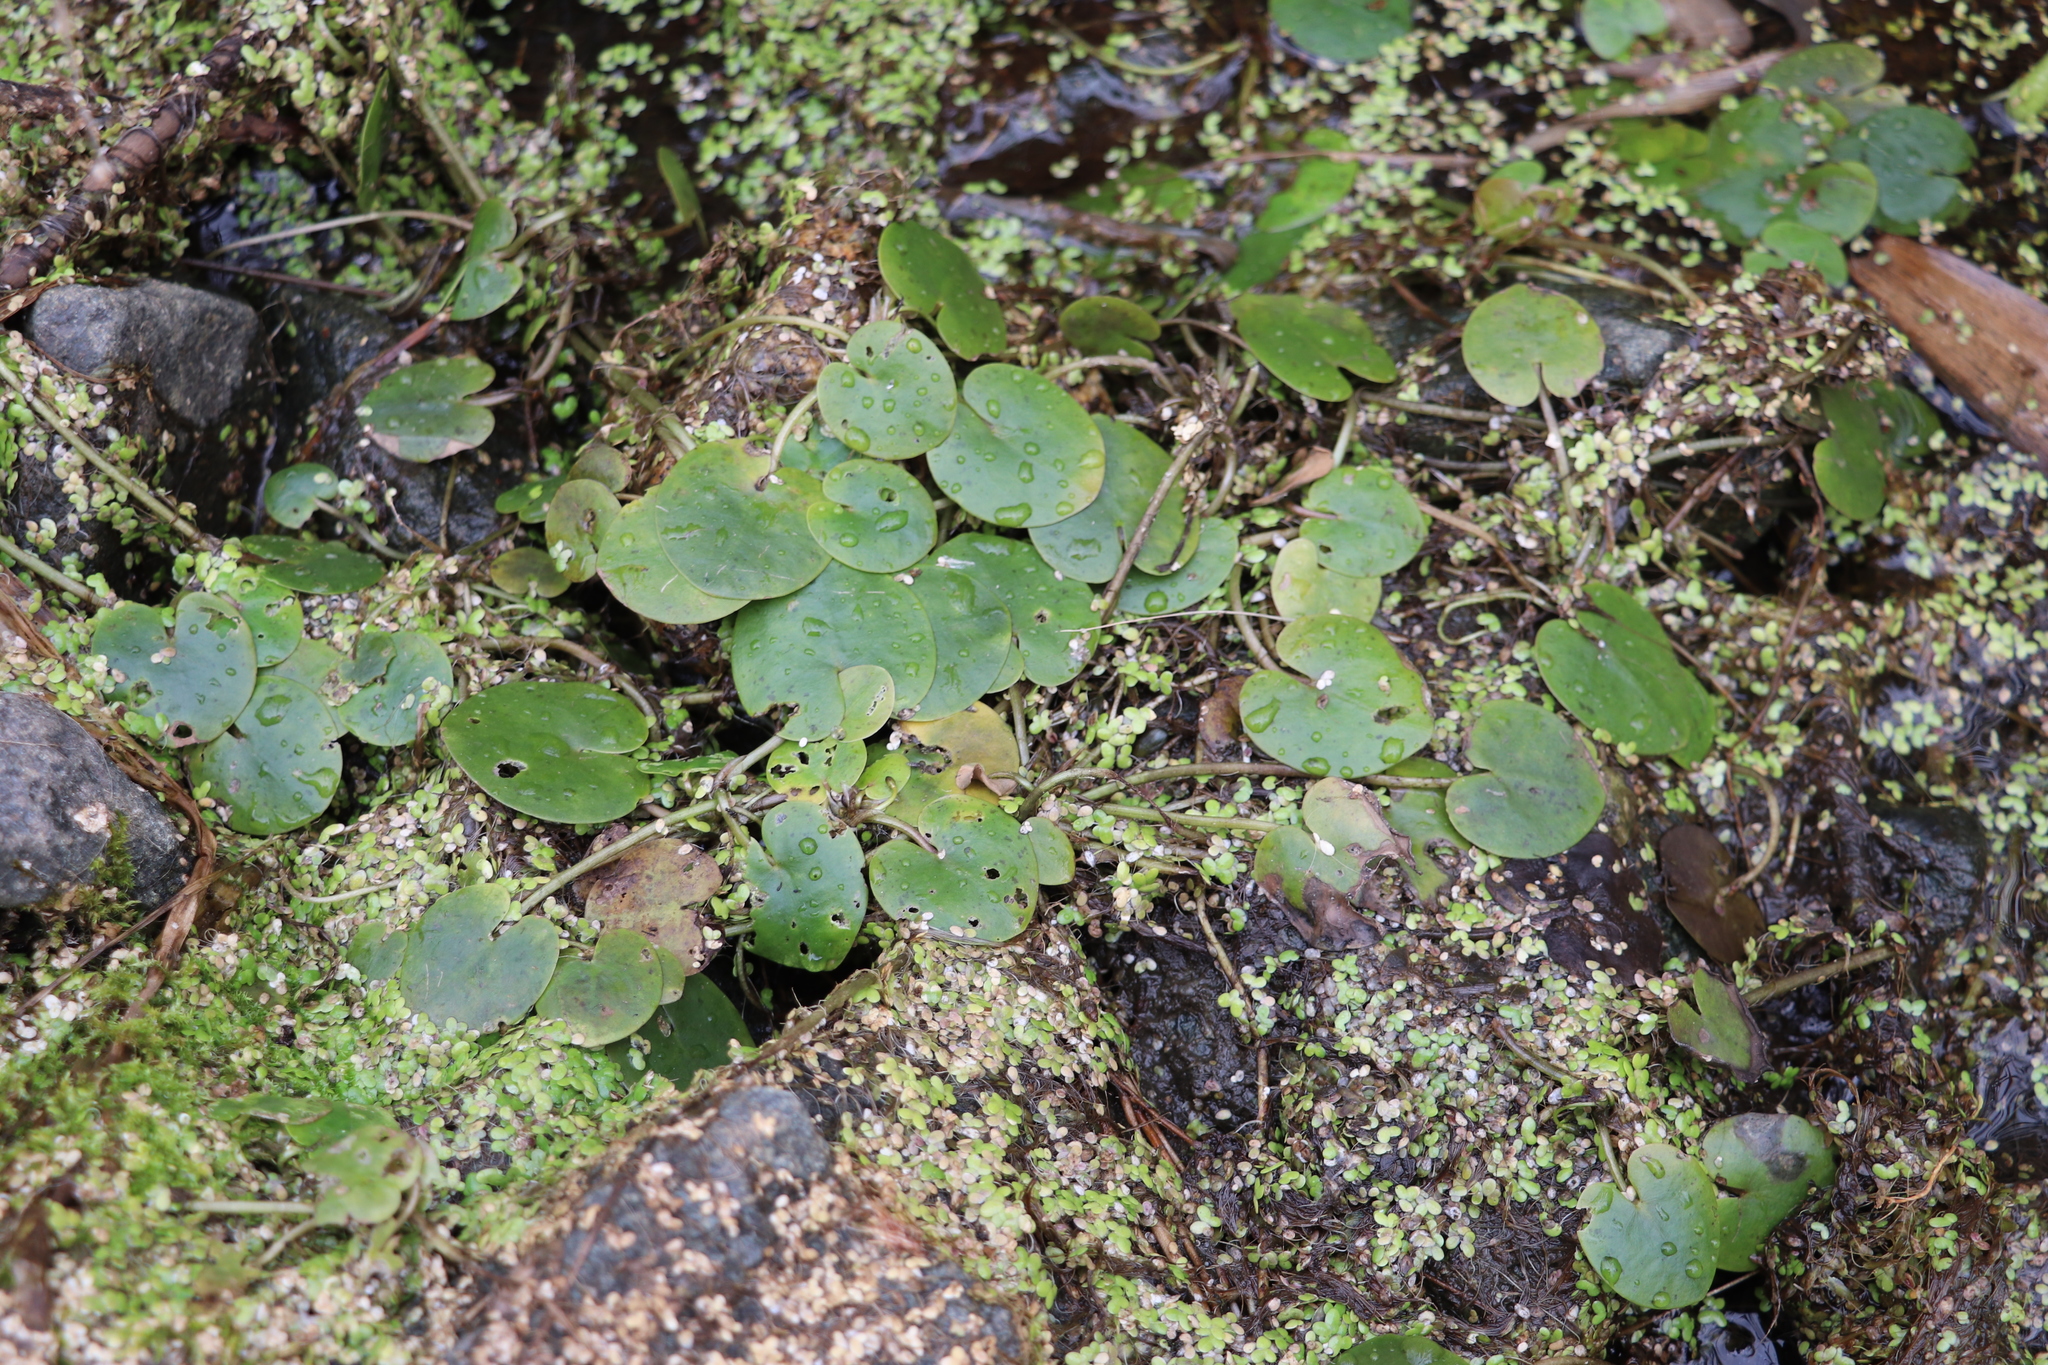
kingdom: Plantae
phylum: Tracheophyta
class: Liliopsida
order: Alismatales
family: Hydrocharitaceae
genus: Hydrocharis
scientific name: Hydrocharis morsus-ranae
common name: Frogbit
